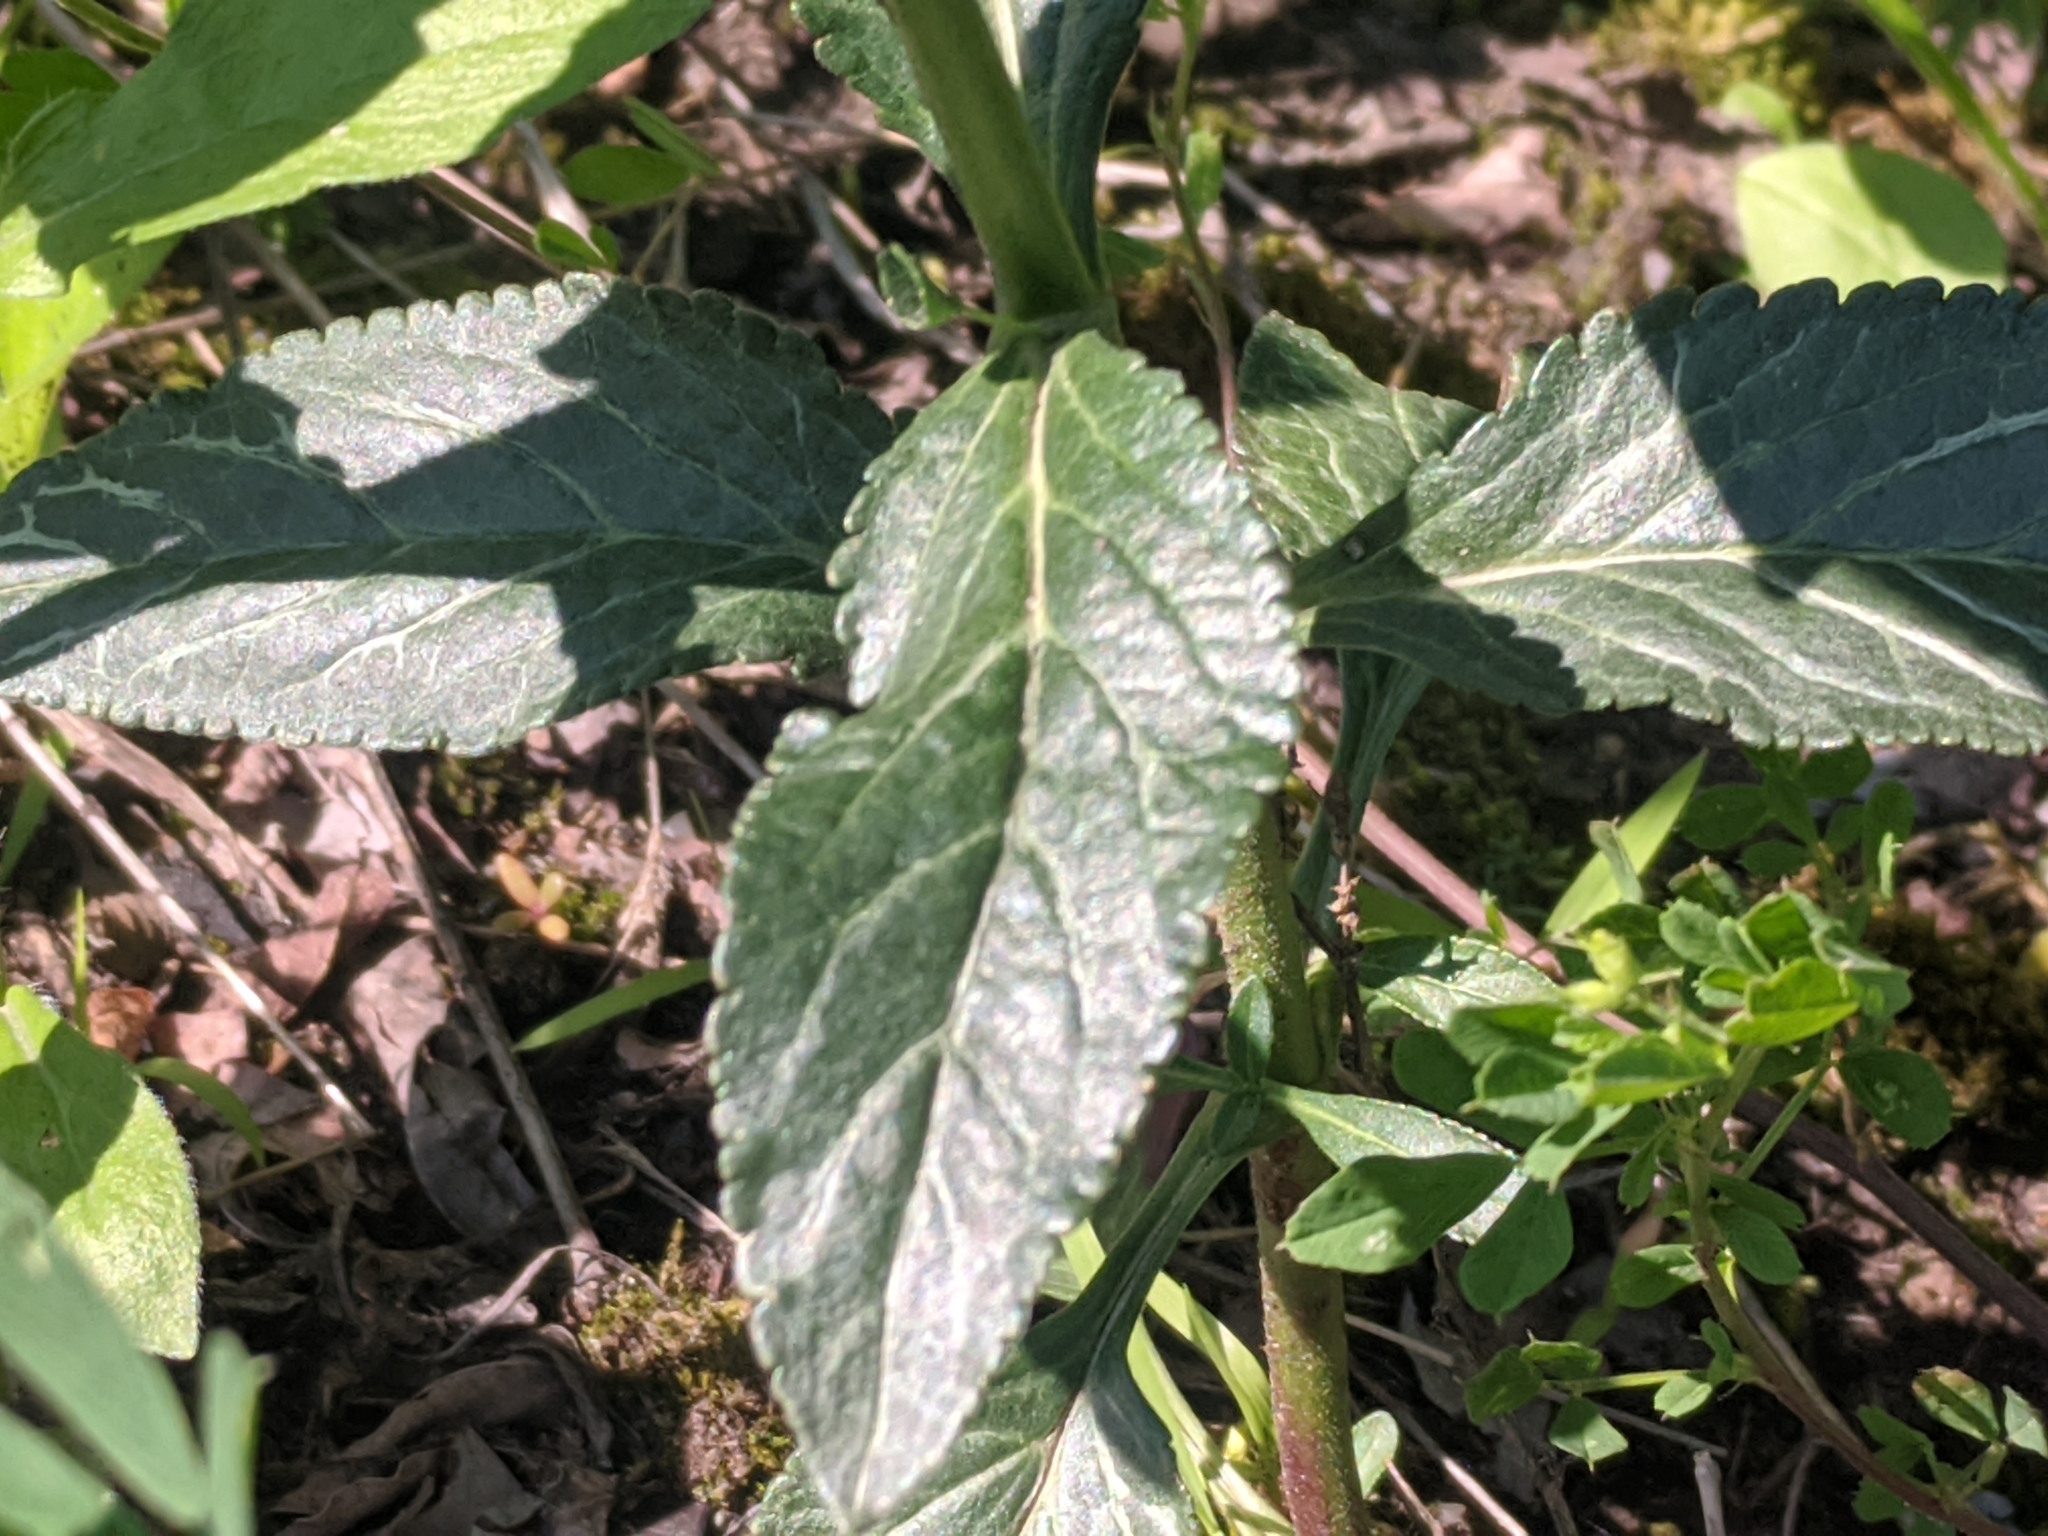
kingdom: Plantae
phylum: Tracheophyta
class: Magnoliopsida
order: Lamiales
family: Plantaginaceae
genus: Veronica
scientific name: Veronica orchidea
